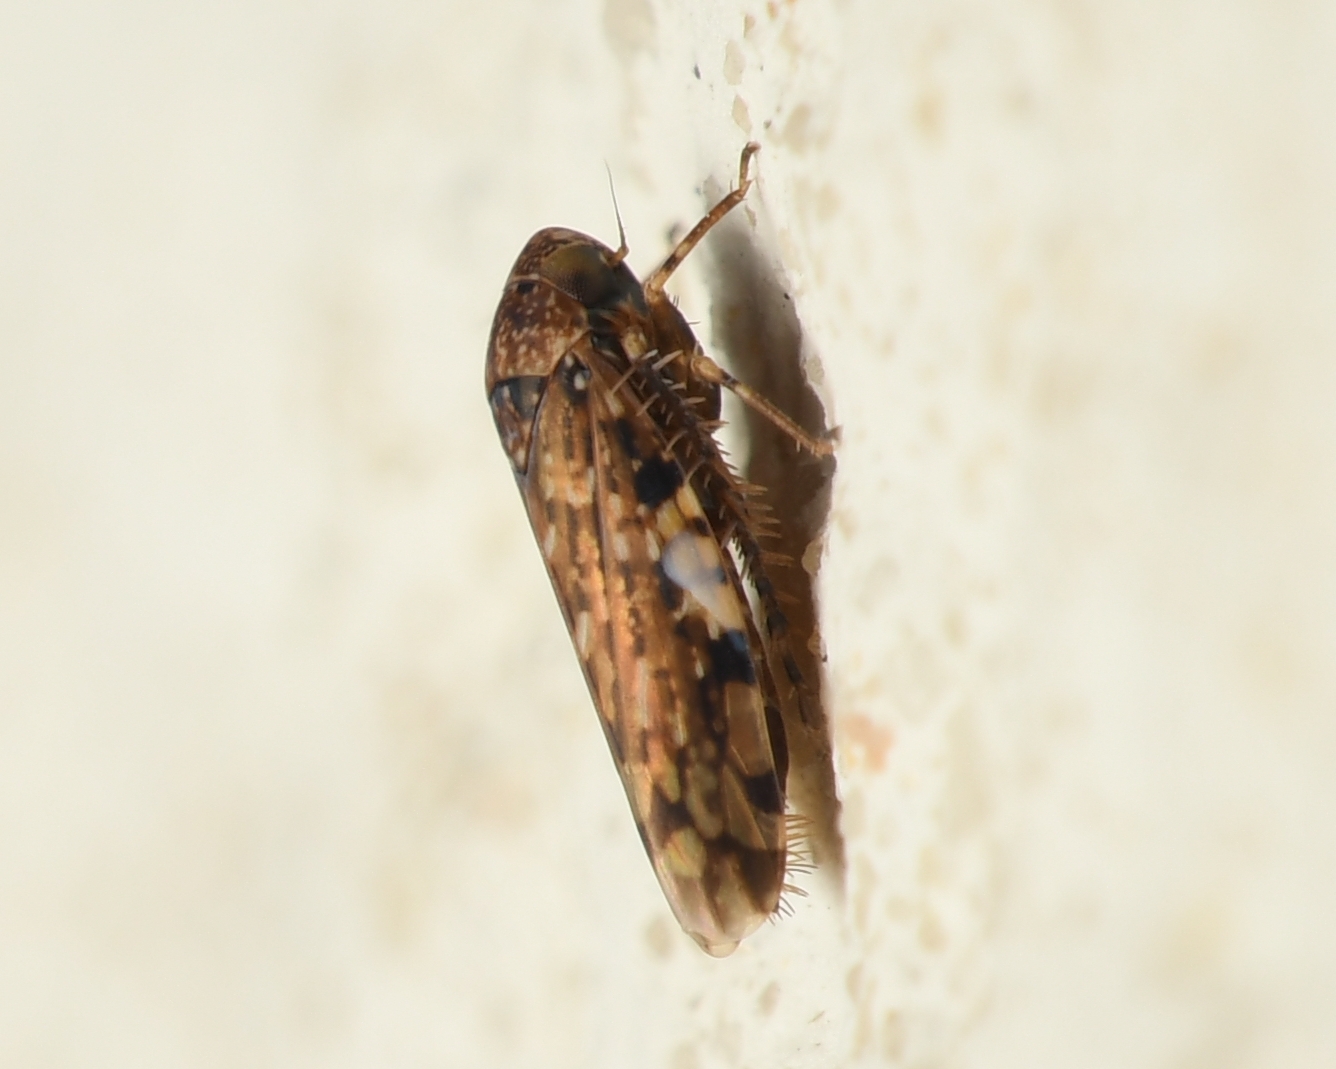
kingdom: Animalia
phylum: Arthropoda
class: Insecta
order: Hemiptera
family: Cicadellidae
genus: Xestocephalus
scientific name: Xestocephalus tessellatus
